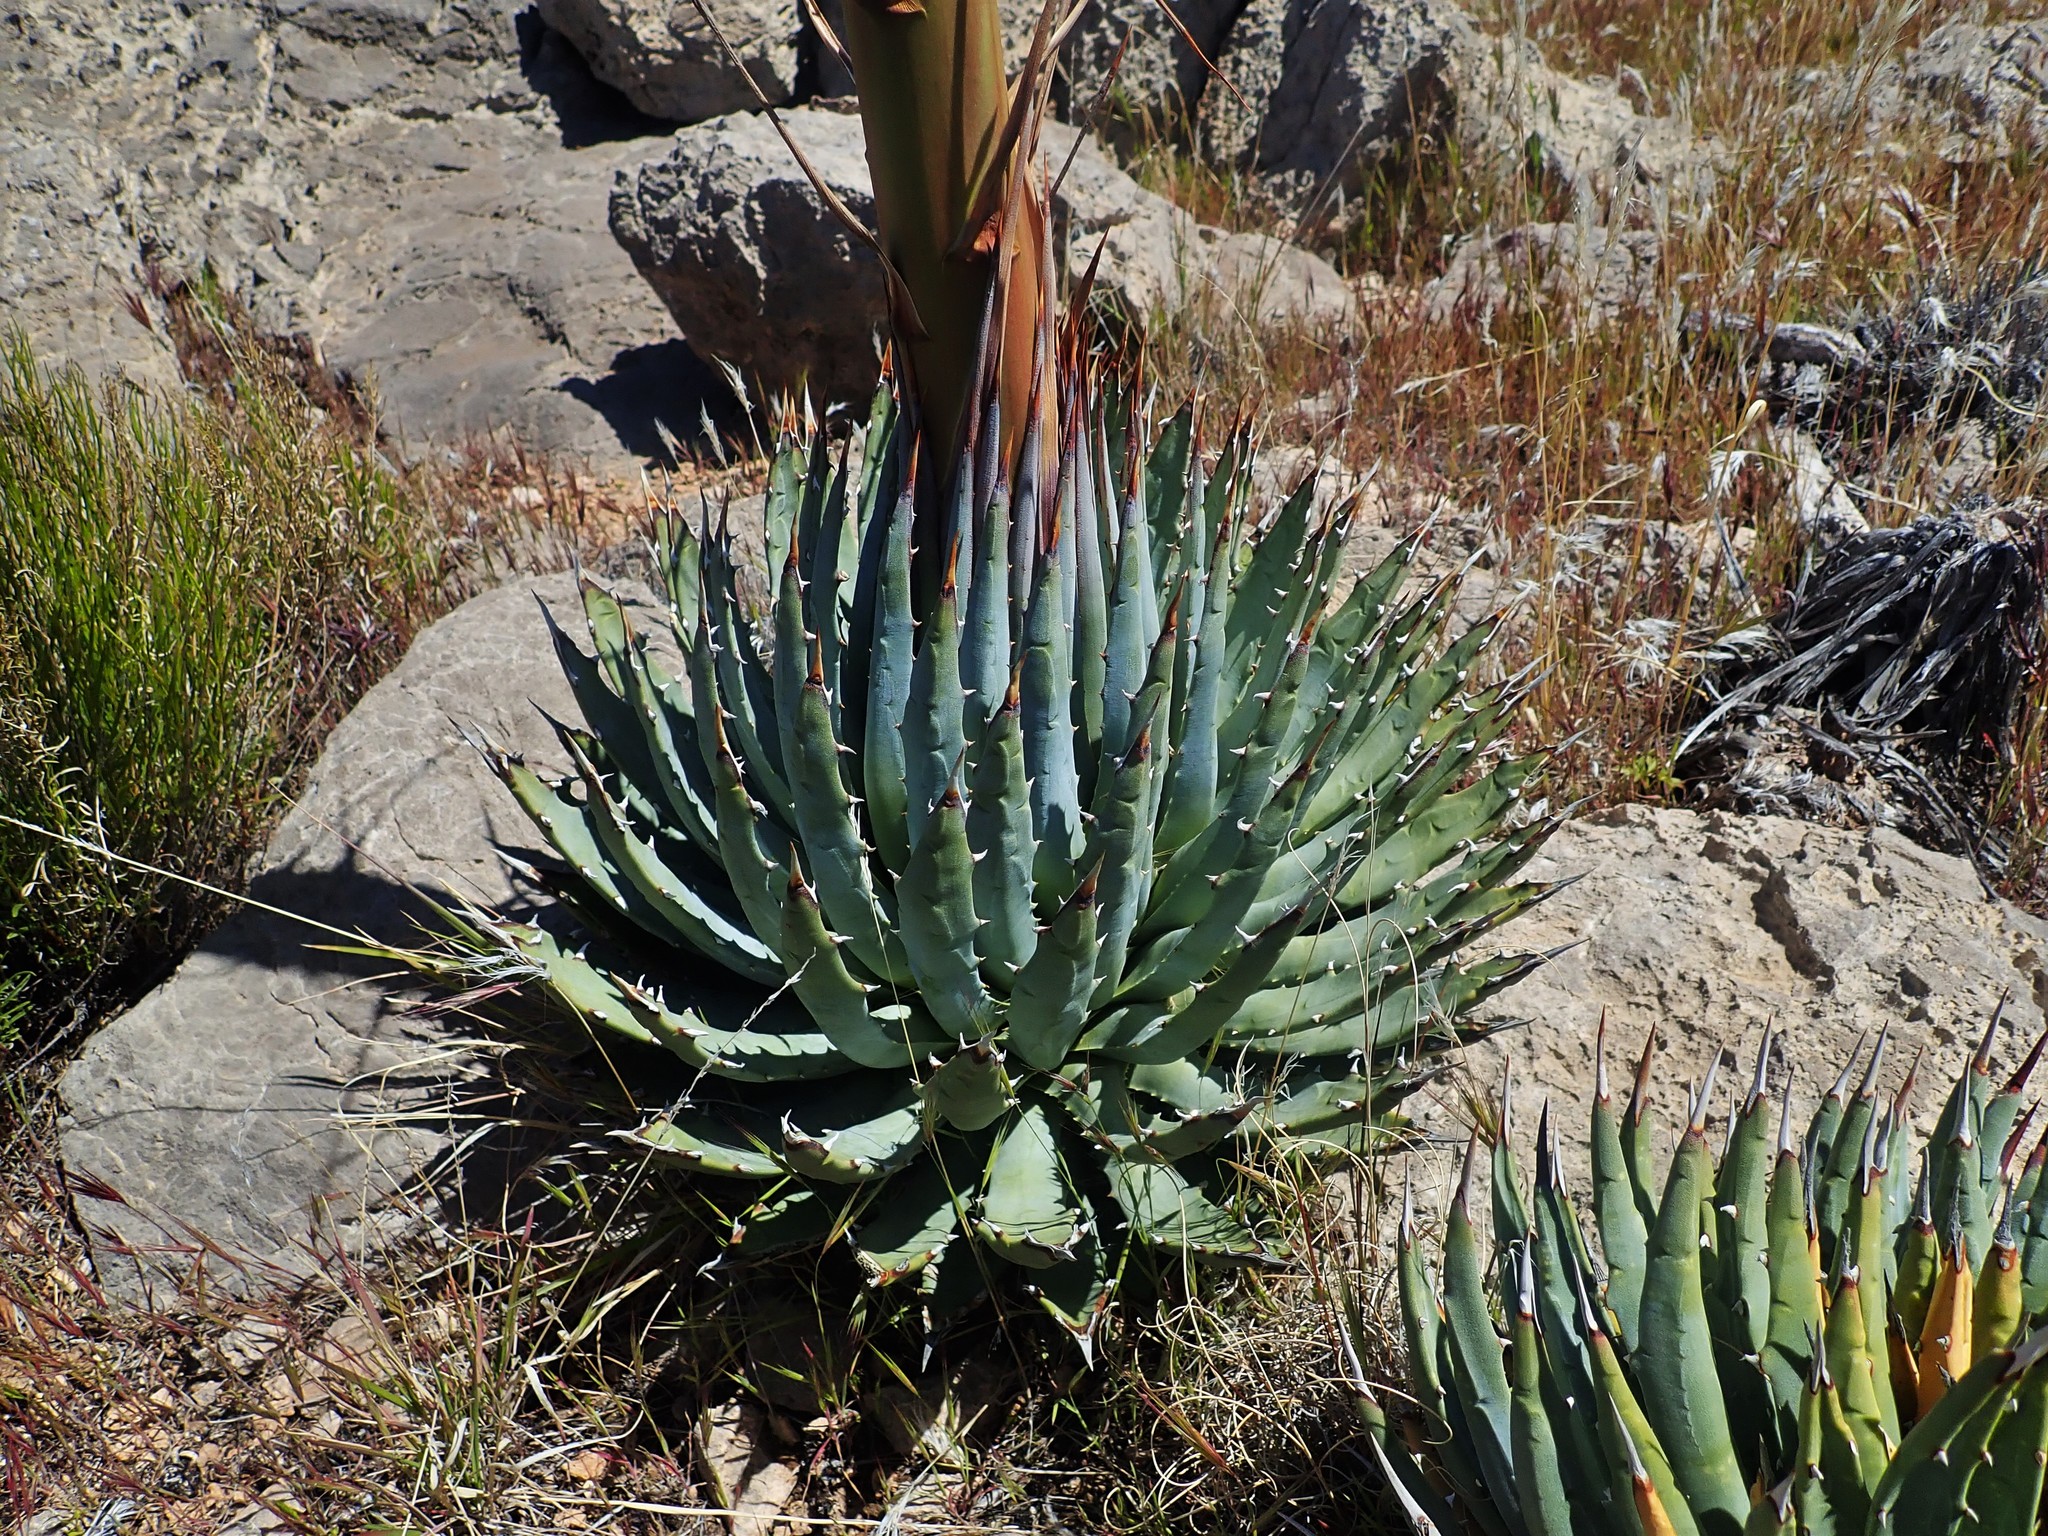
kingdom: Plantae
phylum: Tracheophyta
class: Liliopsida
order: Asparagales
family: Asparagaceae
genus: Agave
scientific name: Agave utahensis
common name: Utah agave
